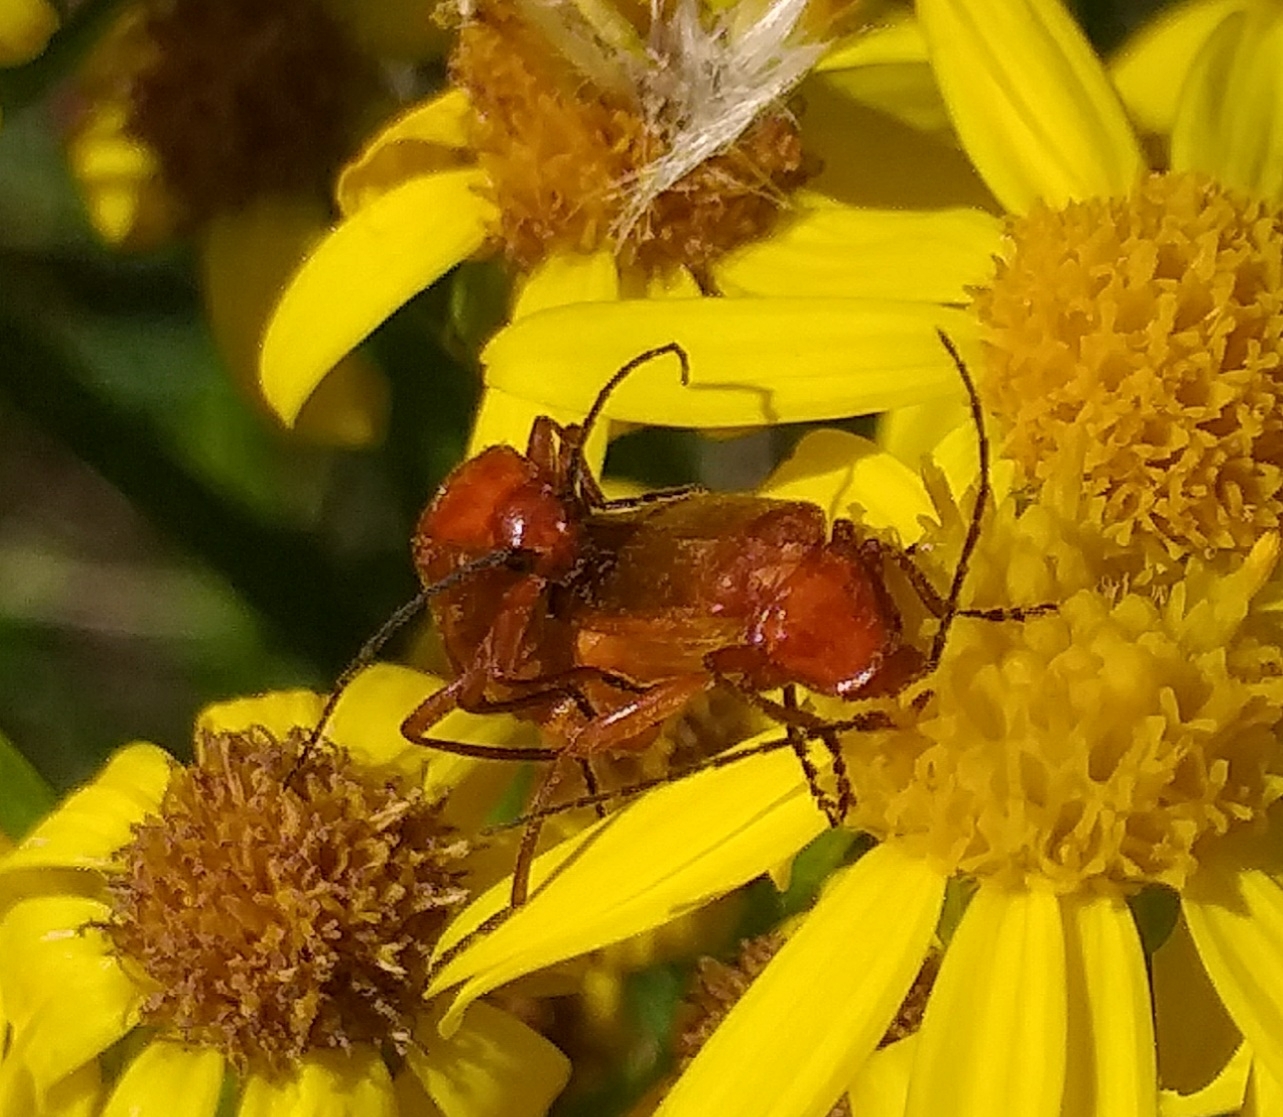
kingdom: Animalia
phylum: Arthropoda
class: Insecta
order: Coleoptera
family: Cantharidae
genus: Rhagonycha
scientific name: Rhagonycha fulva
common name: Common red soldier beetle
